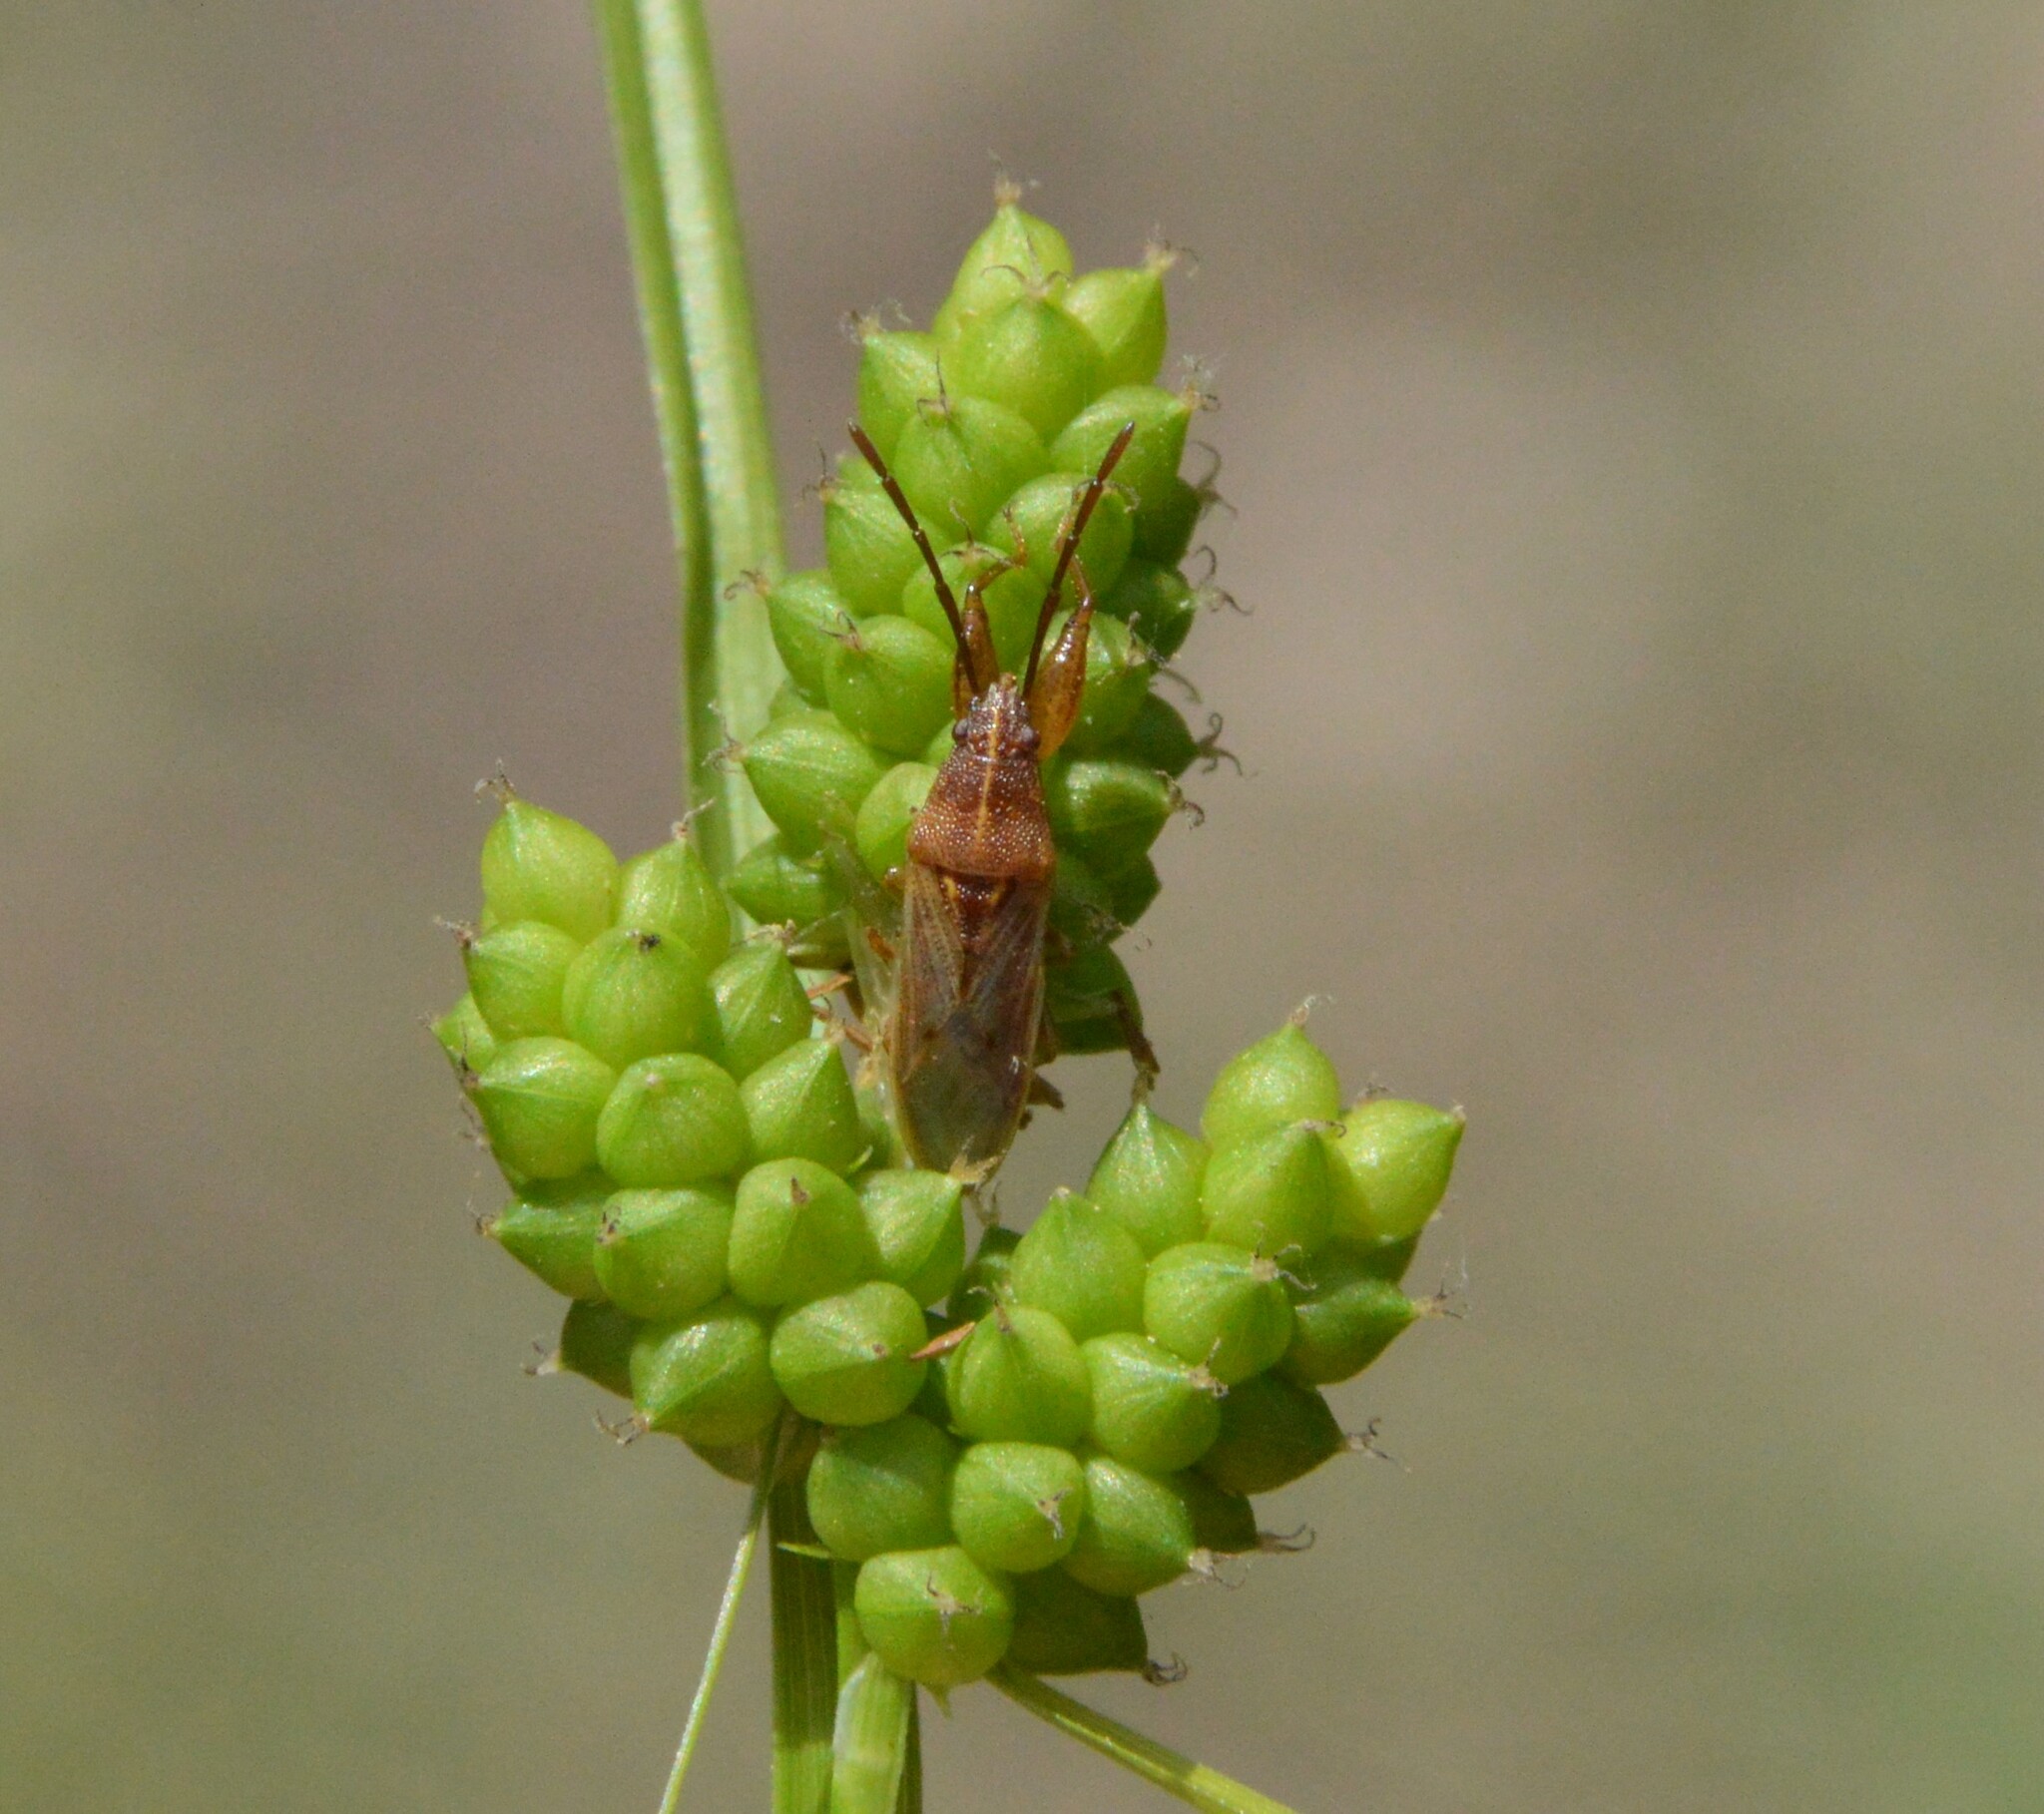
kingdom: Plantae
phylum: Tracheophyta
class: Liliopsida
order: Poales
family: Cyperaceae
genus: Carex
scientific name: Carex caroliniana
